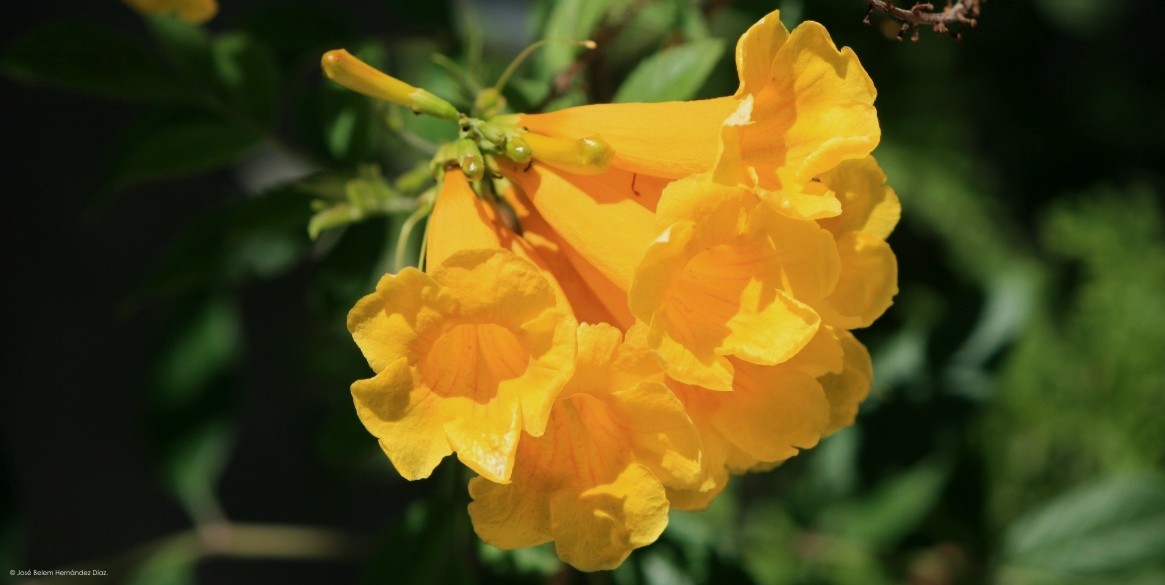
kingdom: Plantae
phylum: Tracheophyta
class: Magnoliopsida
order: Lamiales
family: Bignoniaceae
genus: Tecoma
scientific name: Tecoma stans
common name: Yellow trumpetbush
